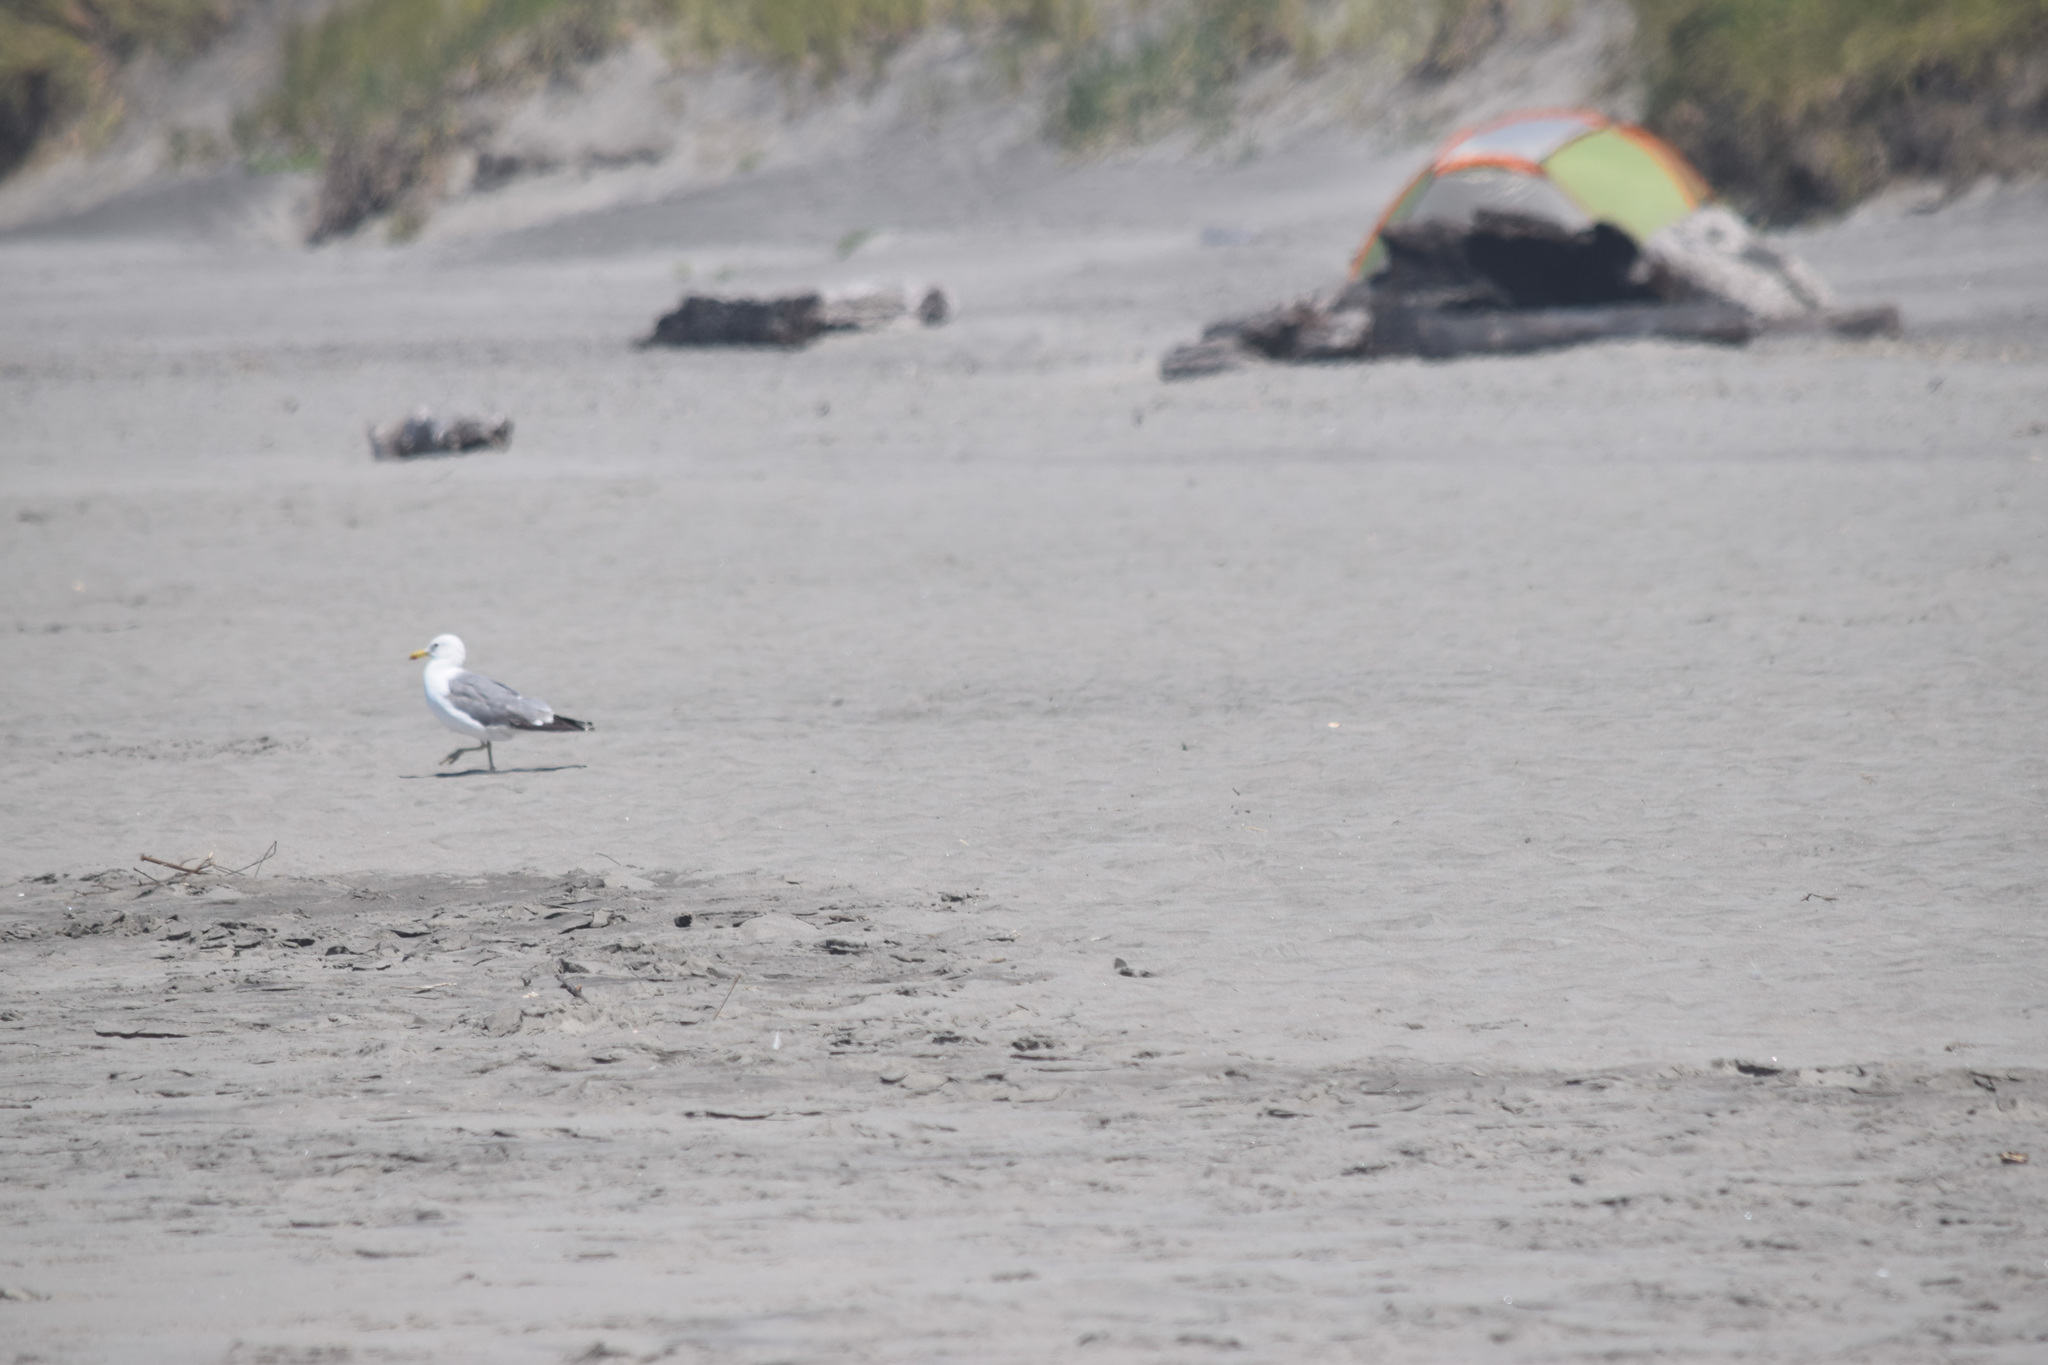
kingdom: Animalia
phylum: Chordata
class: Aves
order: Charadriiformes
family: Laridae
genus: Larus
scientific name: Larus californicus
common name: California gull
